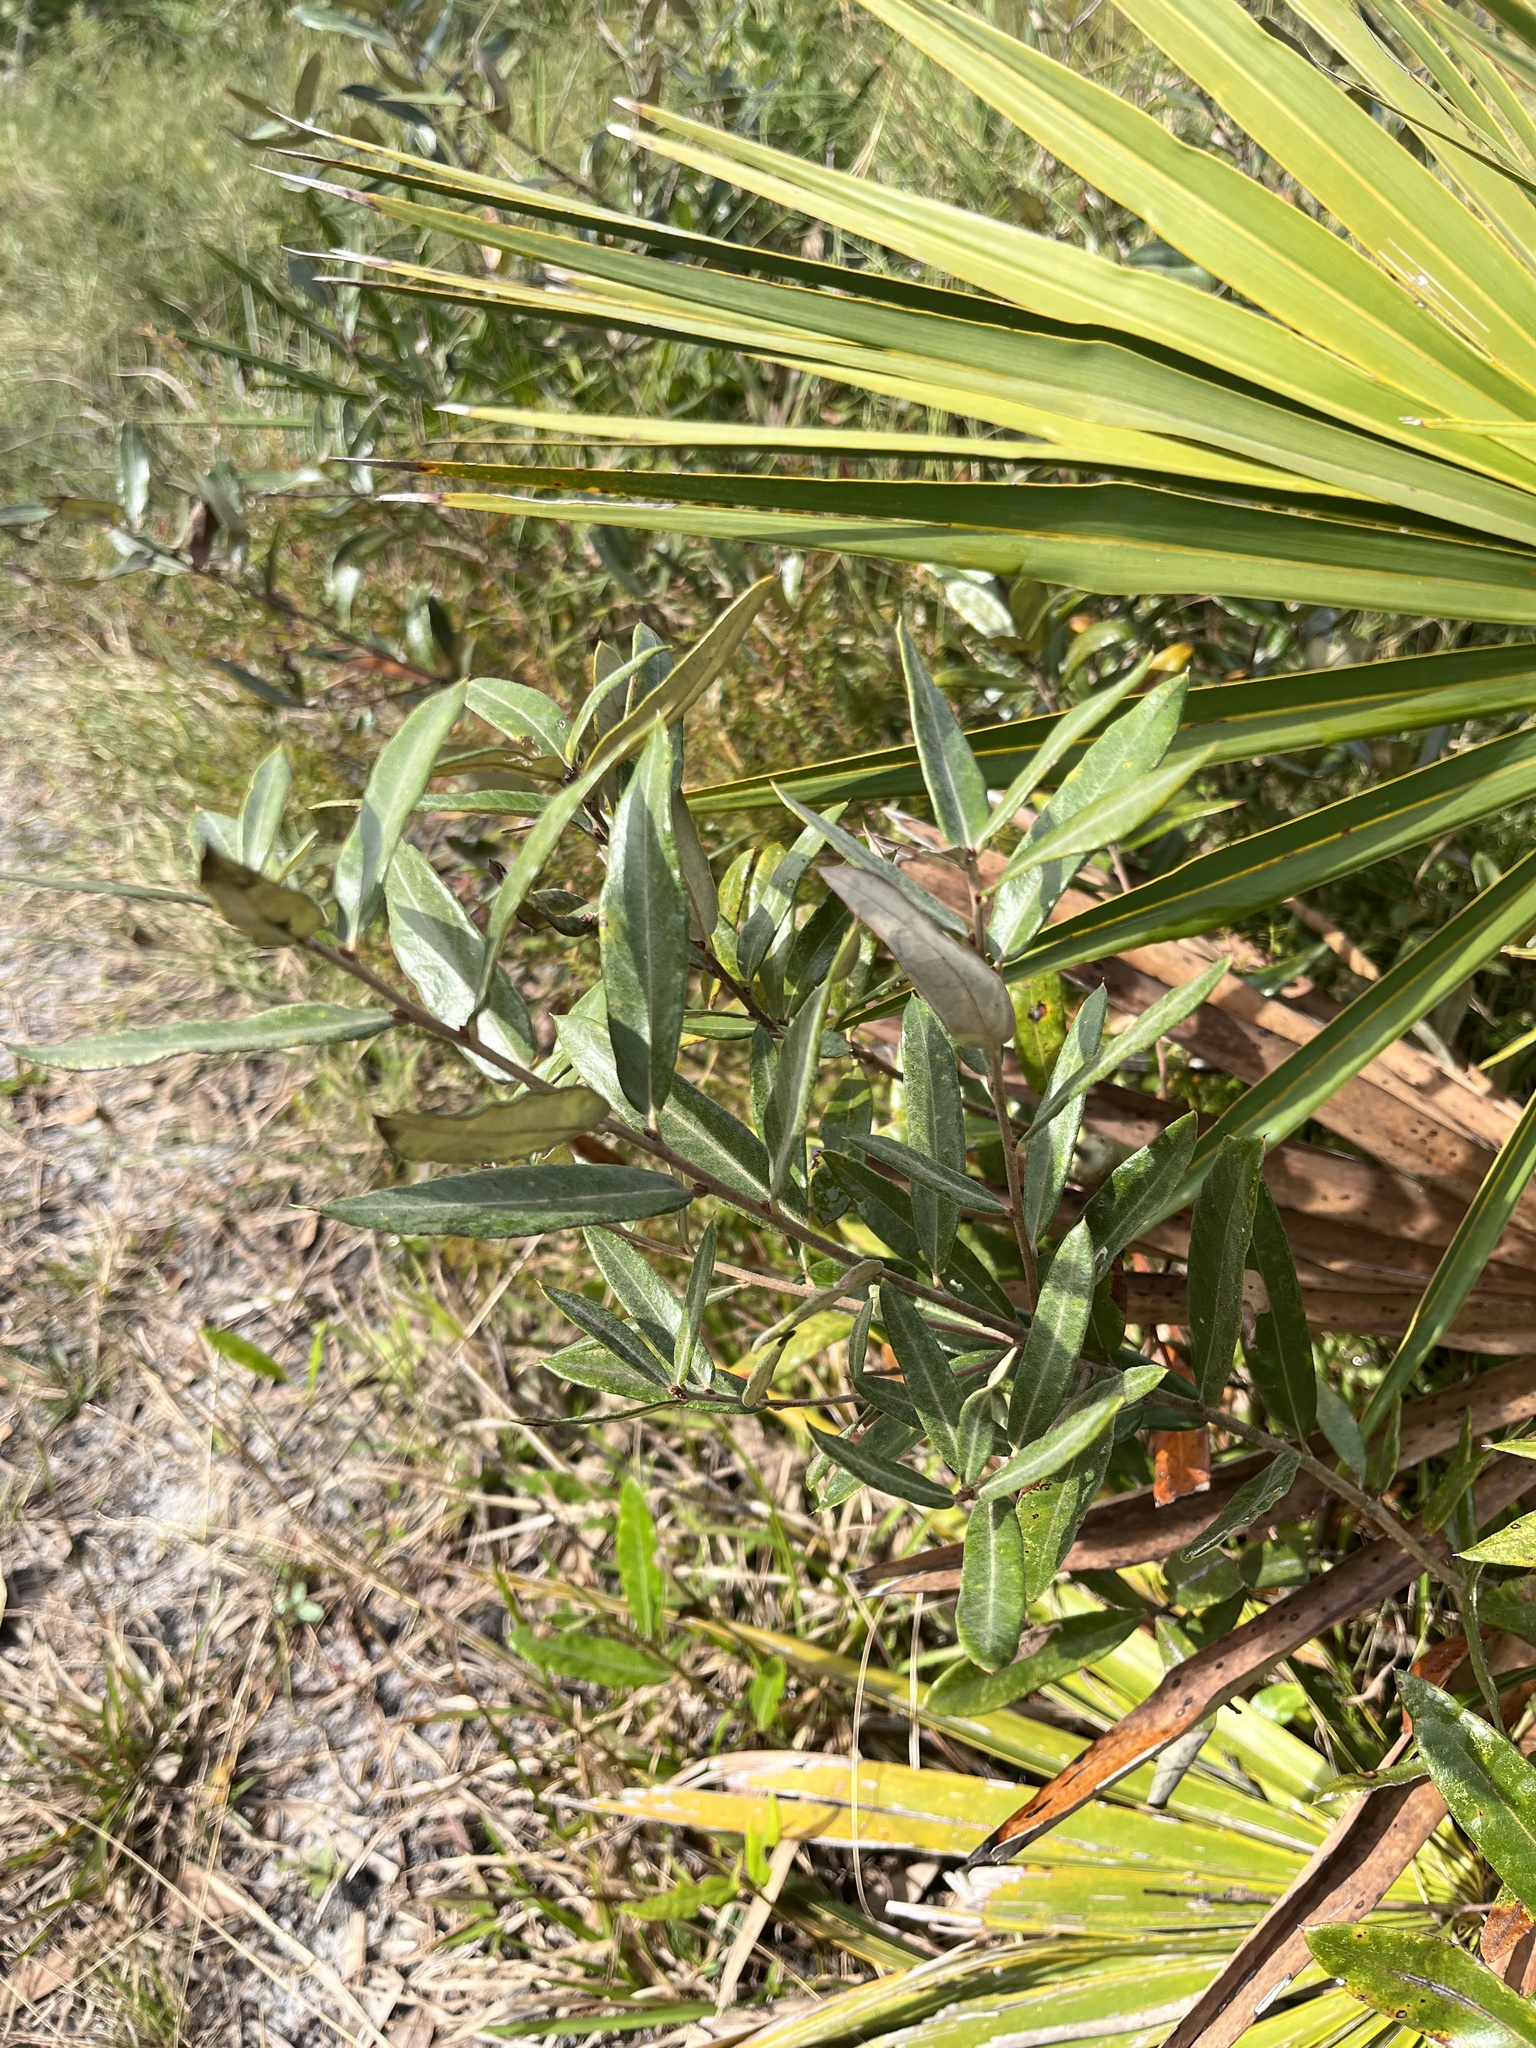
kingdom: Plantae
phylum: Tracheophyta
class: Magnoliopsida
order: Fagales
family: Fagaceae
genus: Quercus
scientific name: Quercus pumila
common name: Runner oak
